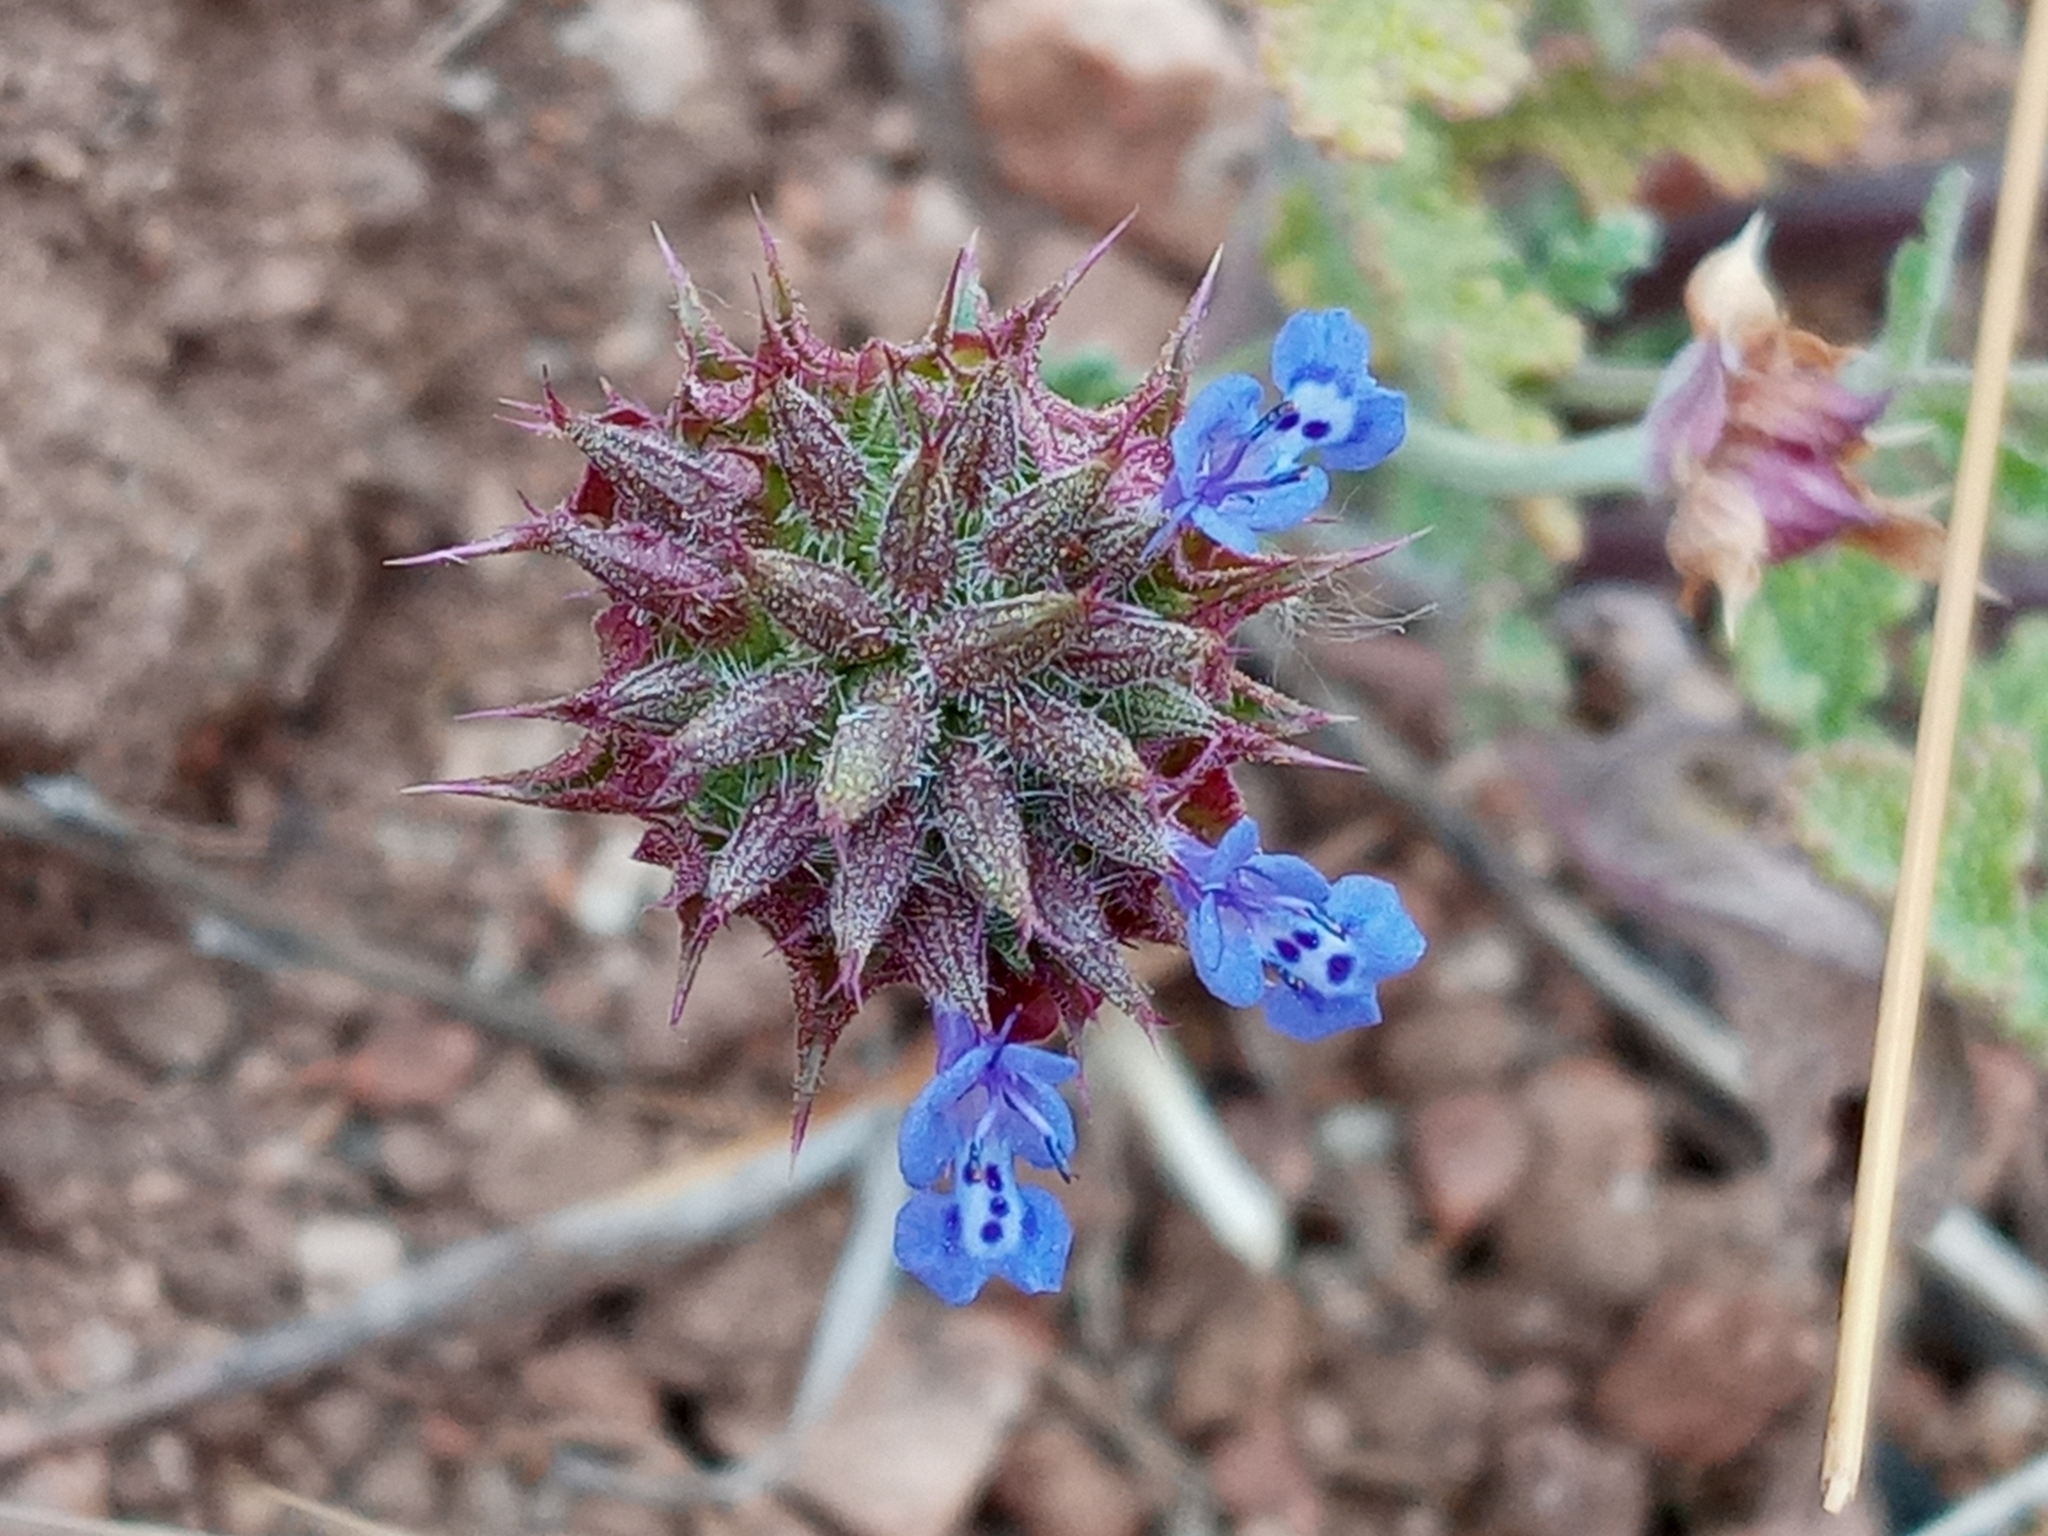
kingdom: Plantae
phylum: Tracheophyta
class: Magnoliopsida
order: Lamiales
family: Lamiaceae
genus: Salvia
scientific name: Salvia columbariae
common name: Chia
